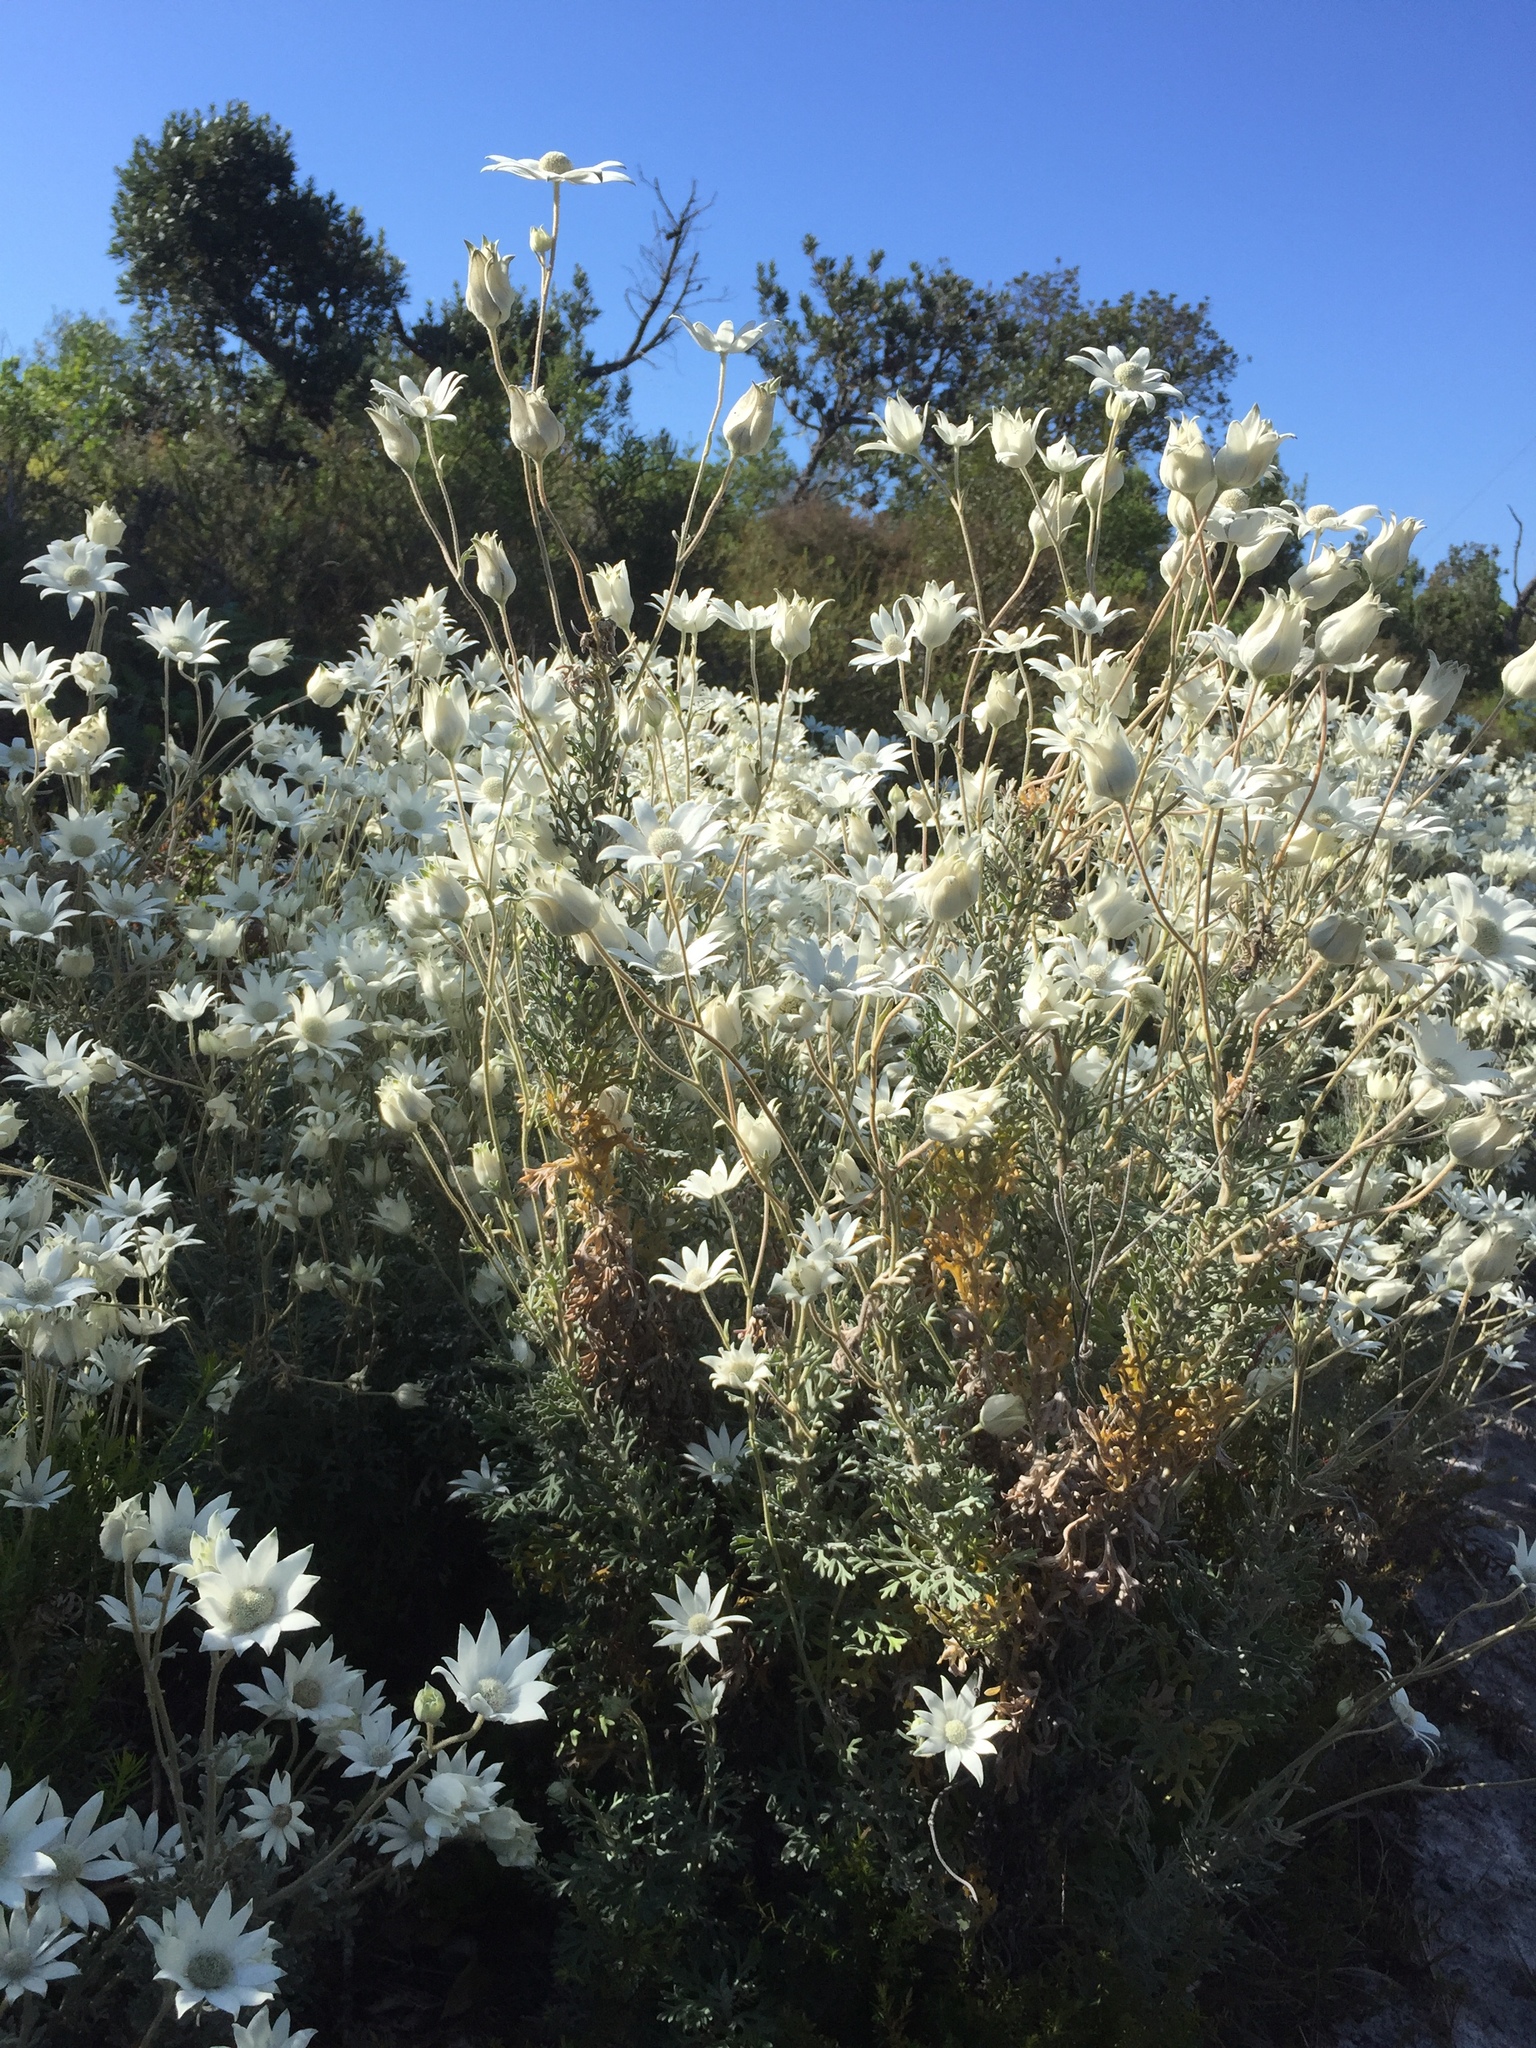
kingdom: Plantae
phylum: Tracheophyta
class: Magnoliopsida
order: Apiales
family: Apiaceae
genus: Actinotus
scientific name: Actinotus helianthi
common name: Flannel-flower
